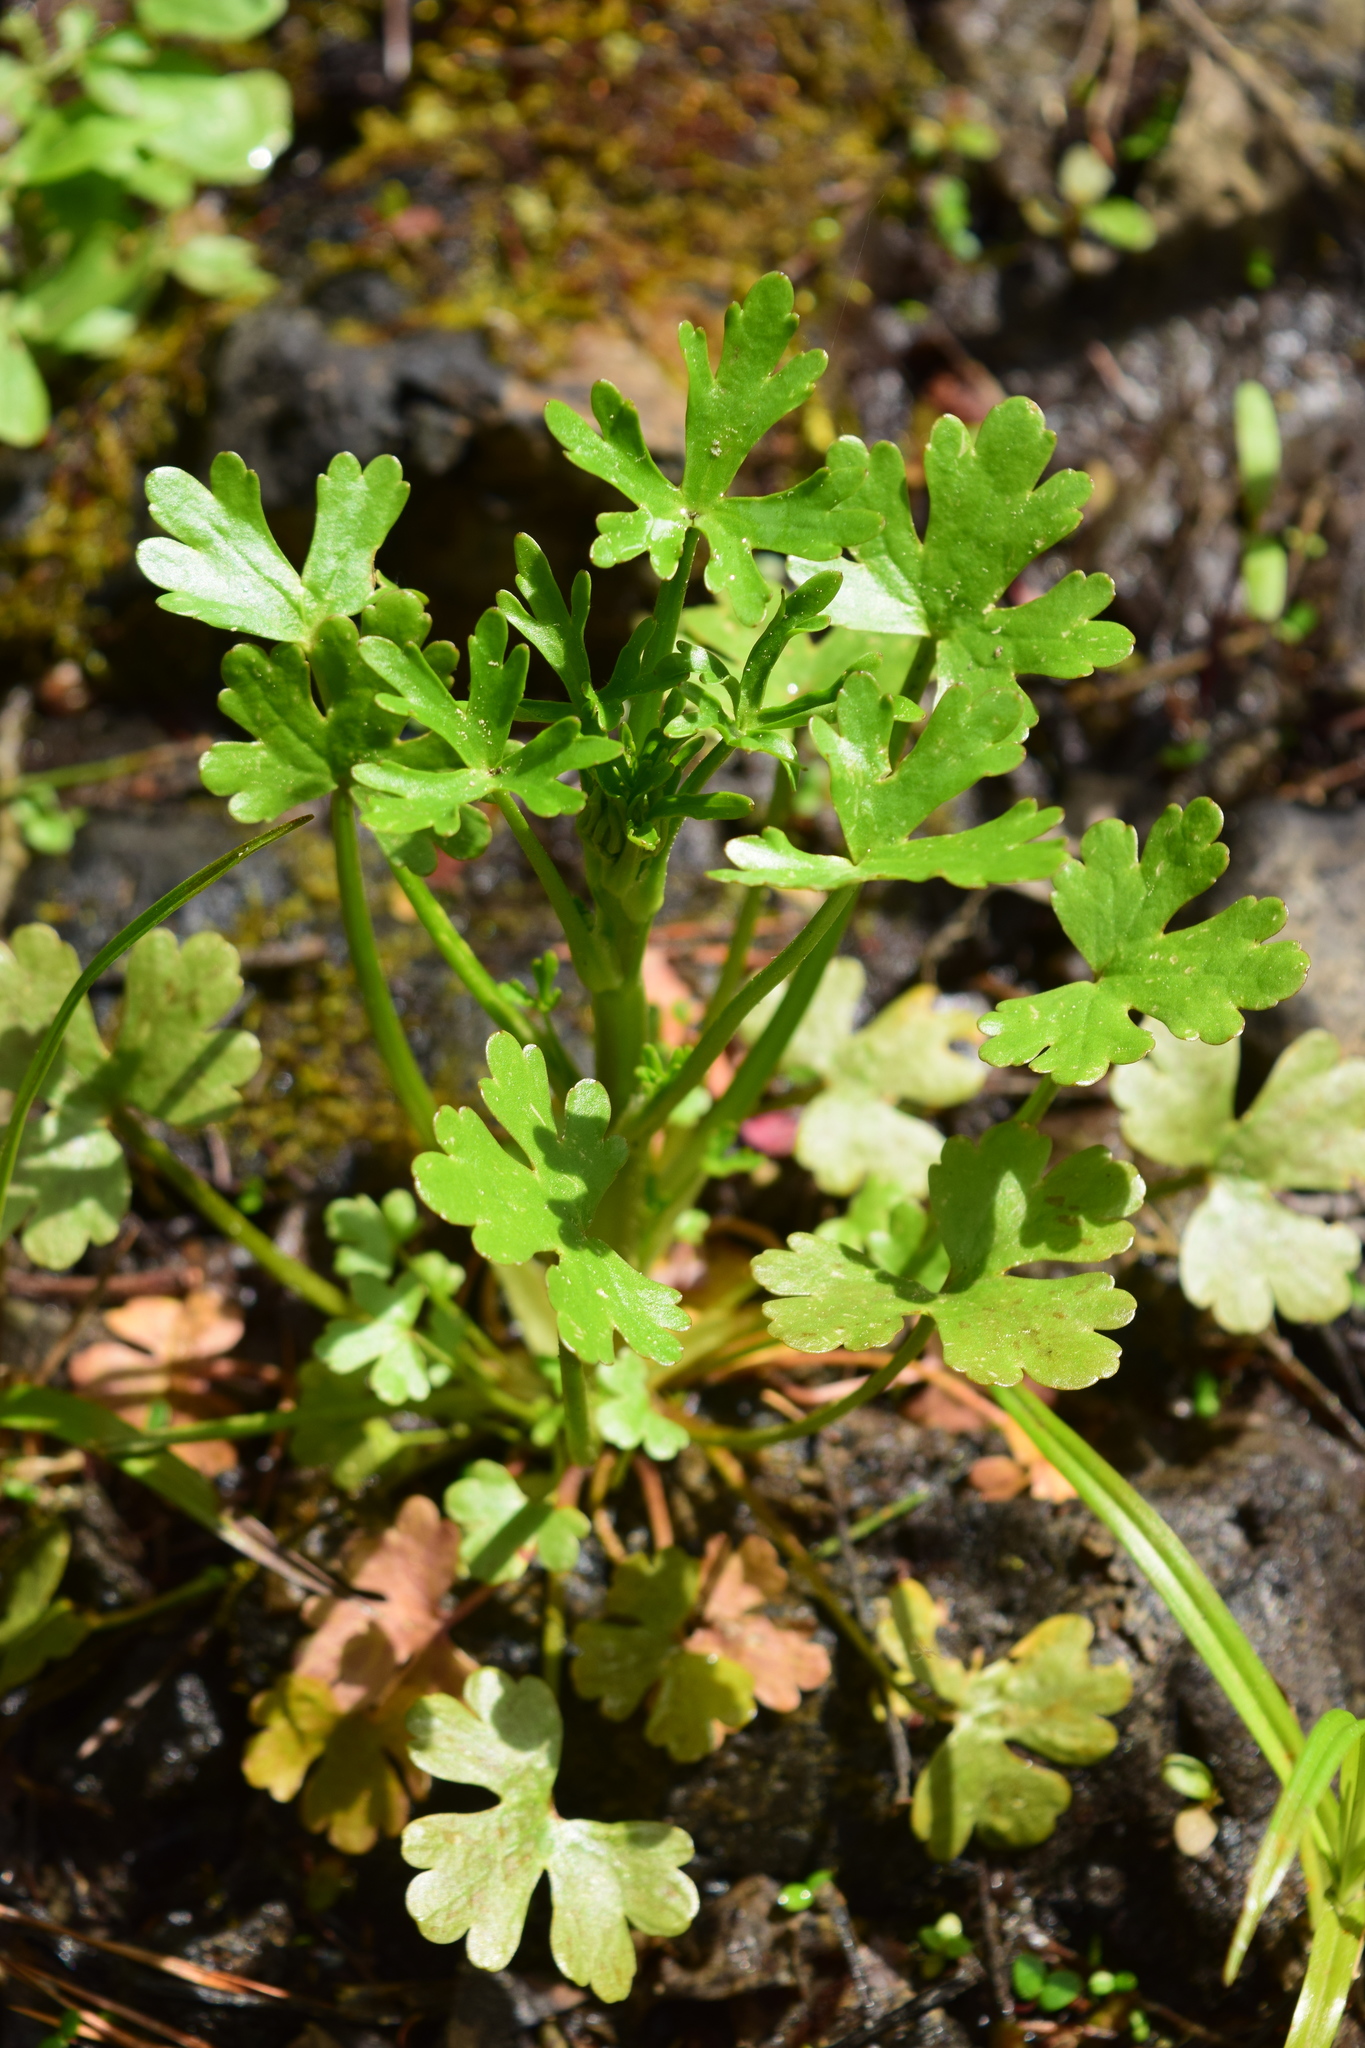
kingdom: Plantae
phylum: Tracheophyta
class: Magnoliopsida
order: Ranunculales
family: Ranunculaceae
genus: Ranunculus
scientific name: Ranunculus sceleratus
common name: Celery-leaved buttercup
